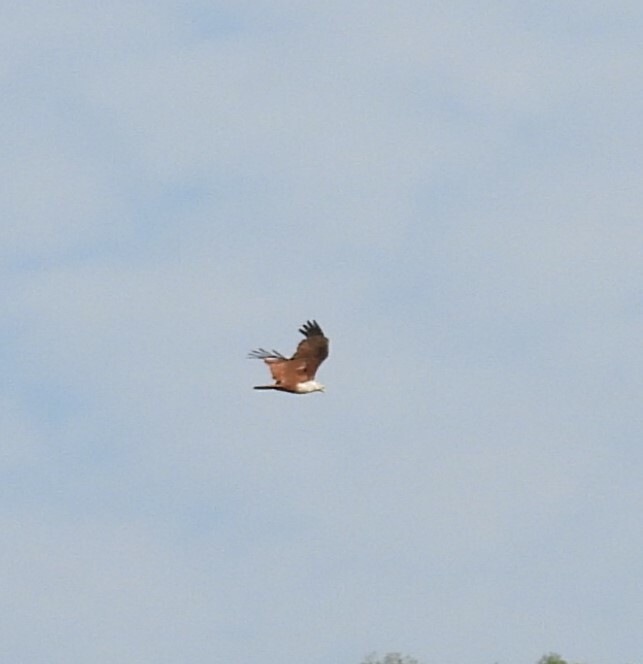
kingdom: Animalia
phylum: Chordata
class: Aves
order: Accipitriformes
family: Accipitridae
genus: Haliastur
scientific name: Haliastur indus
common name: Brahminy kite
